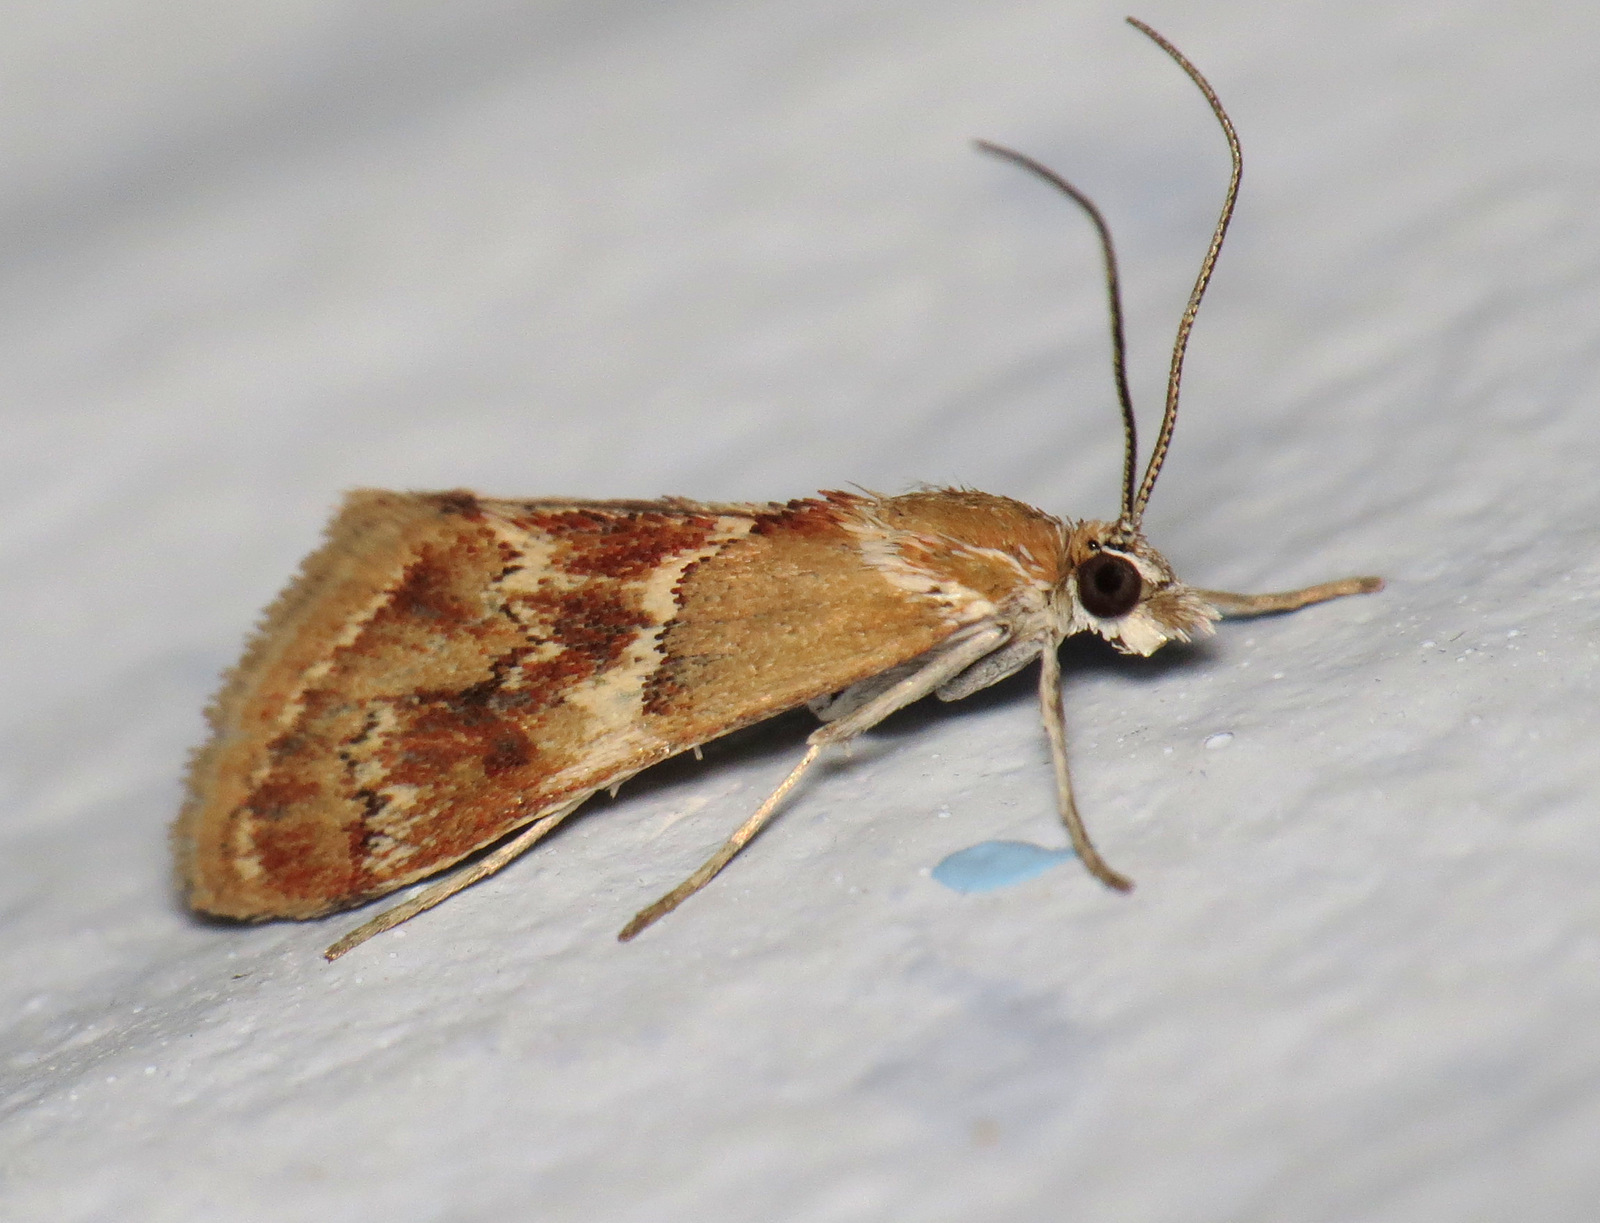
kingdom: Animalia
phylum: Arthropoda
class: Insecta
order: Lepidoptera
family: Crambidae
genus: Noctueliopsis
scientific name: Noctueliopsis bububattalis
